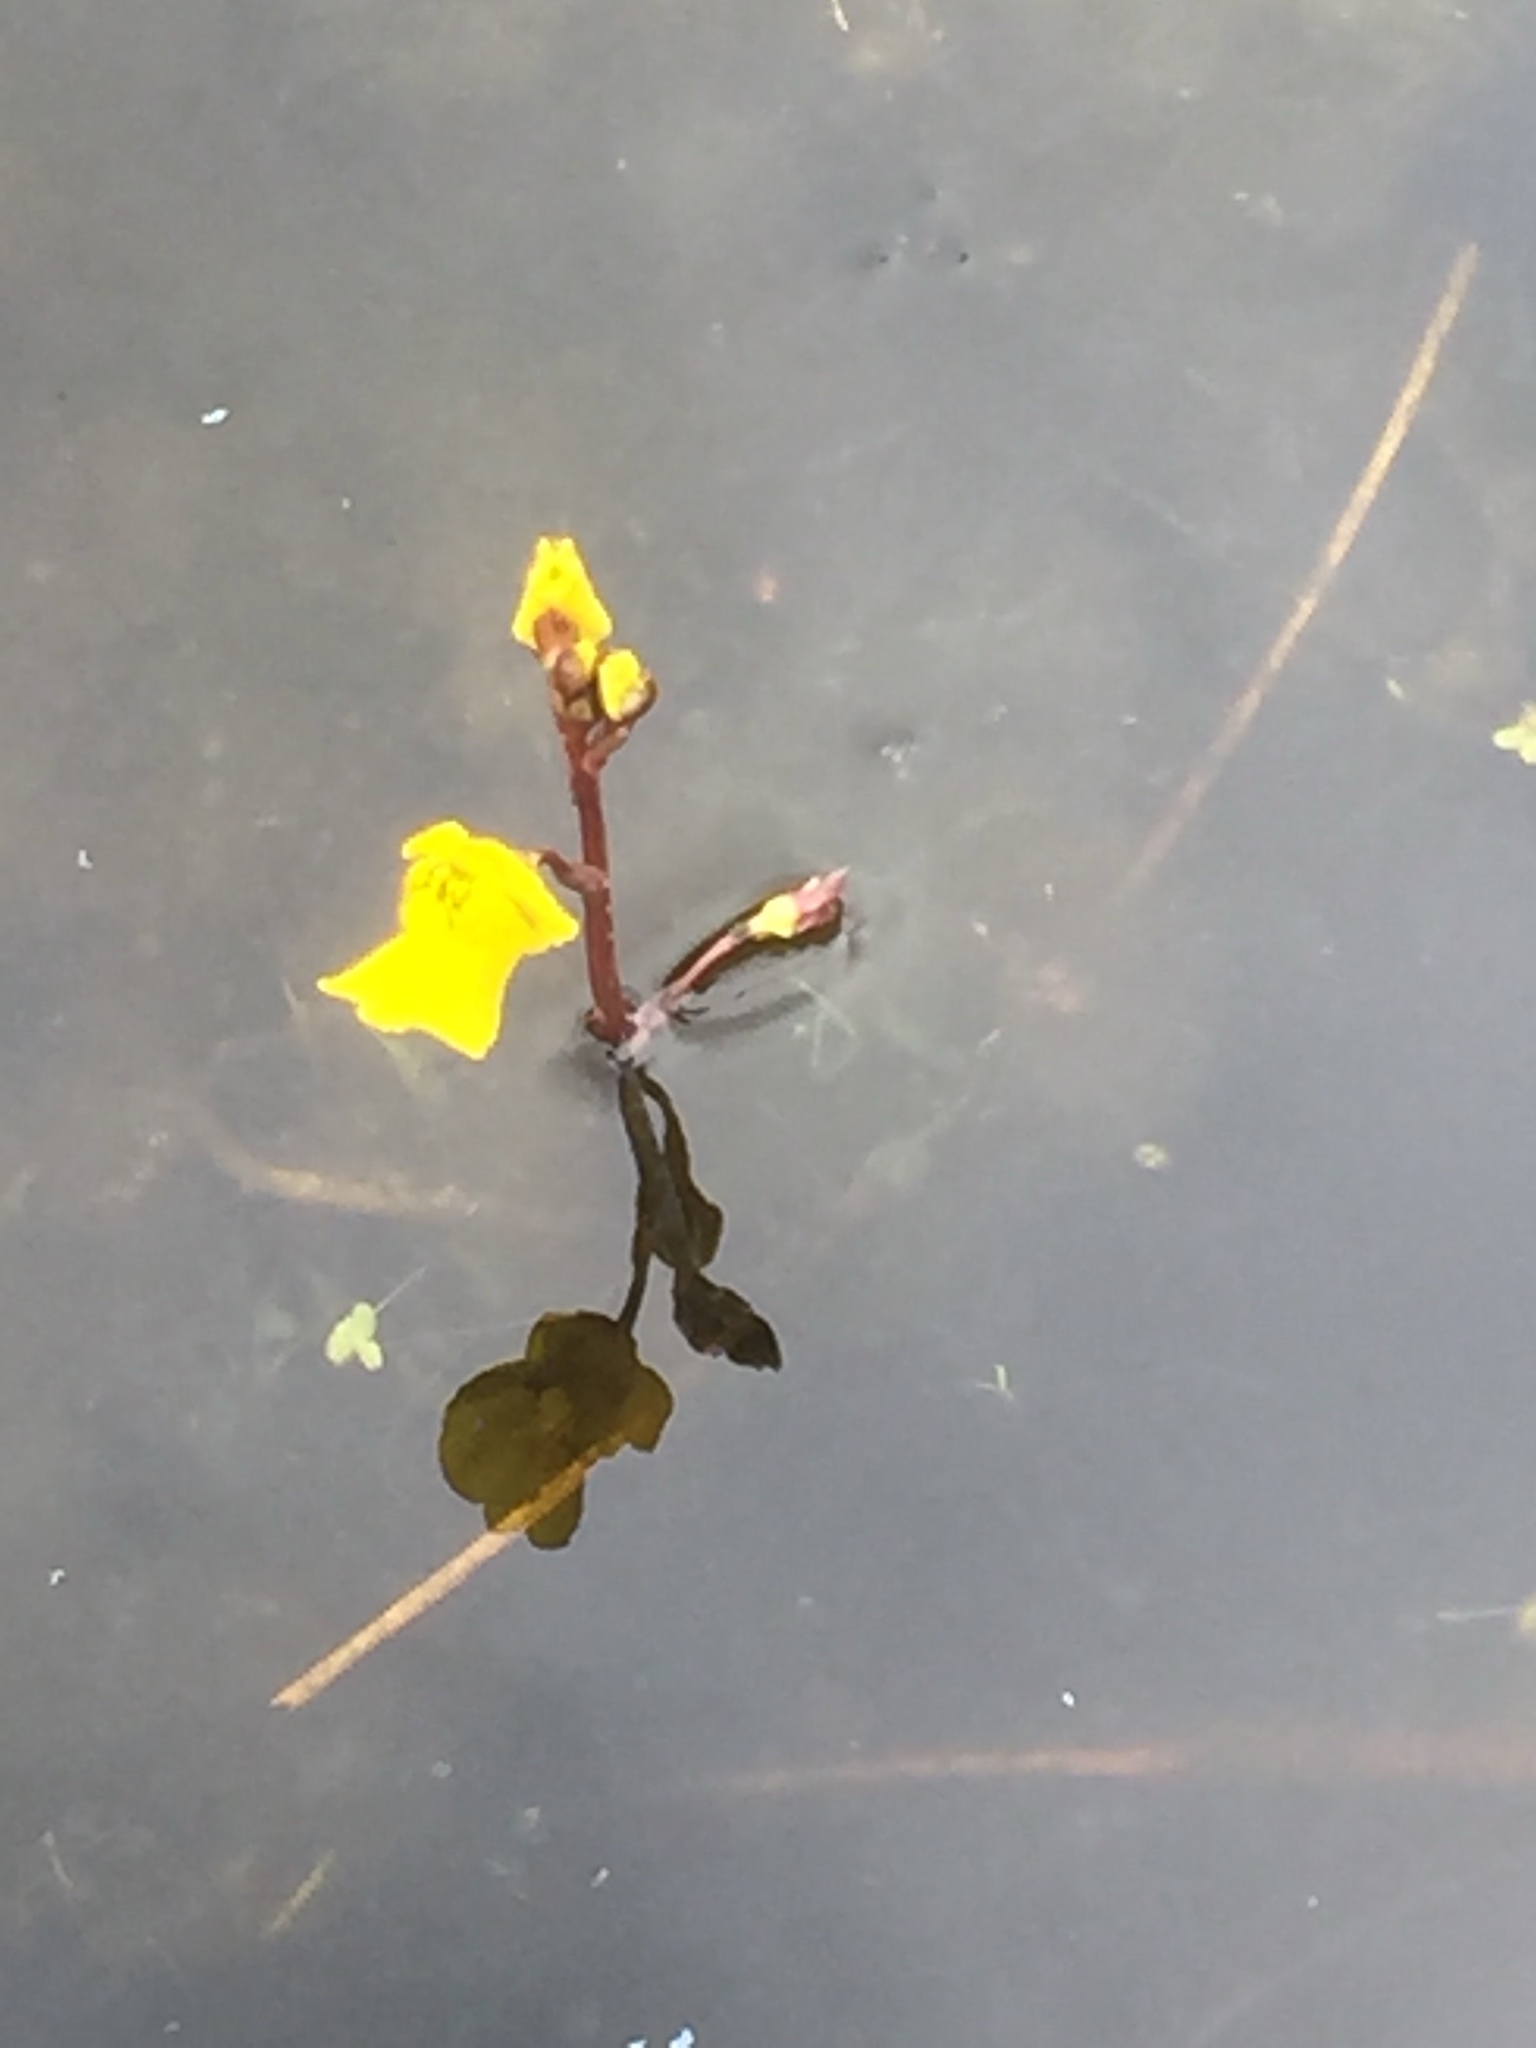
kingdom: Plantae
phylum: Tracheophyta
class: Magnoliopsida
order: Lamiales
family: Lentibulariaceae
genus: Utricularia
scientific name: Utricularia vulgaris
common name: Greater bladderwort
